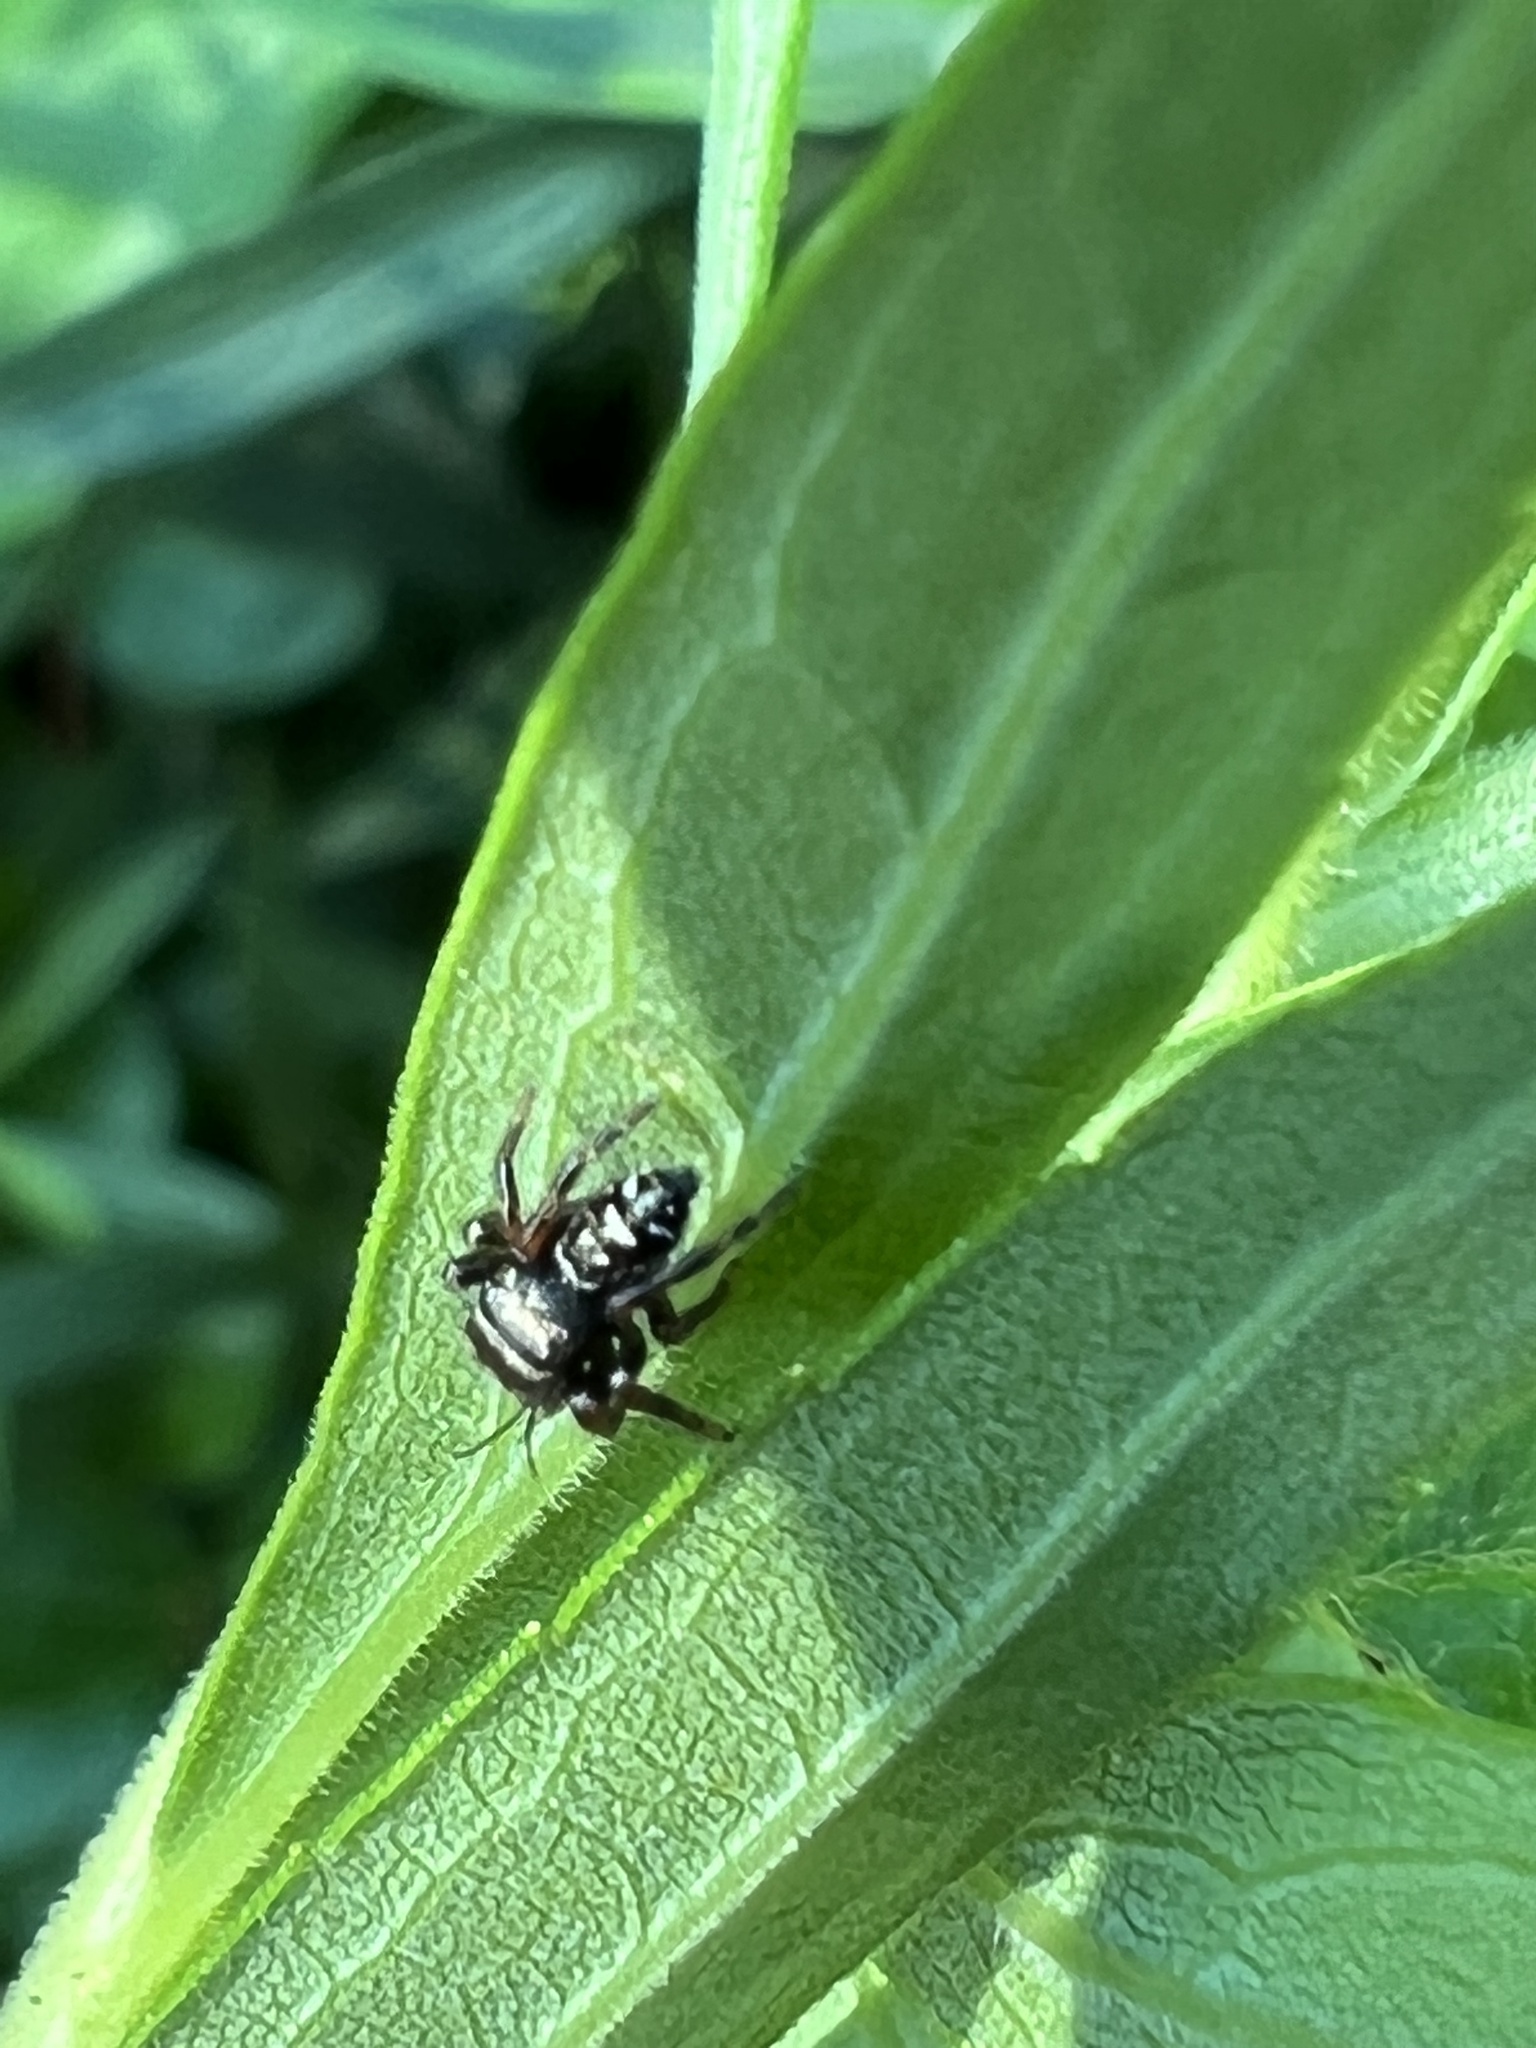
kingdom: Animalia
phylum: Arthropoda
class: Arachnida
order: Araneae
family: Salticidae
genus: Phidippus
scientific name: Phidippus audax
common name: Bold jumper
